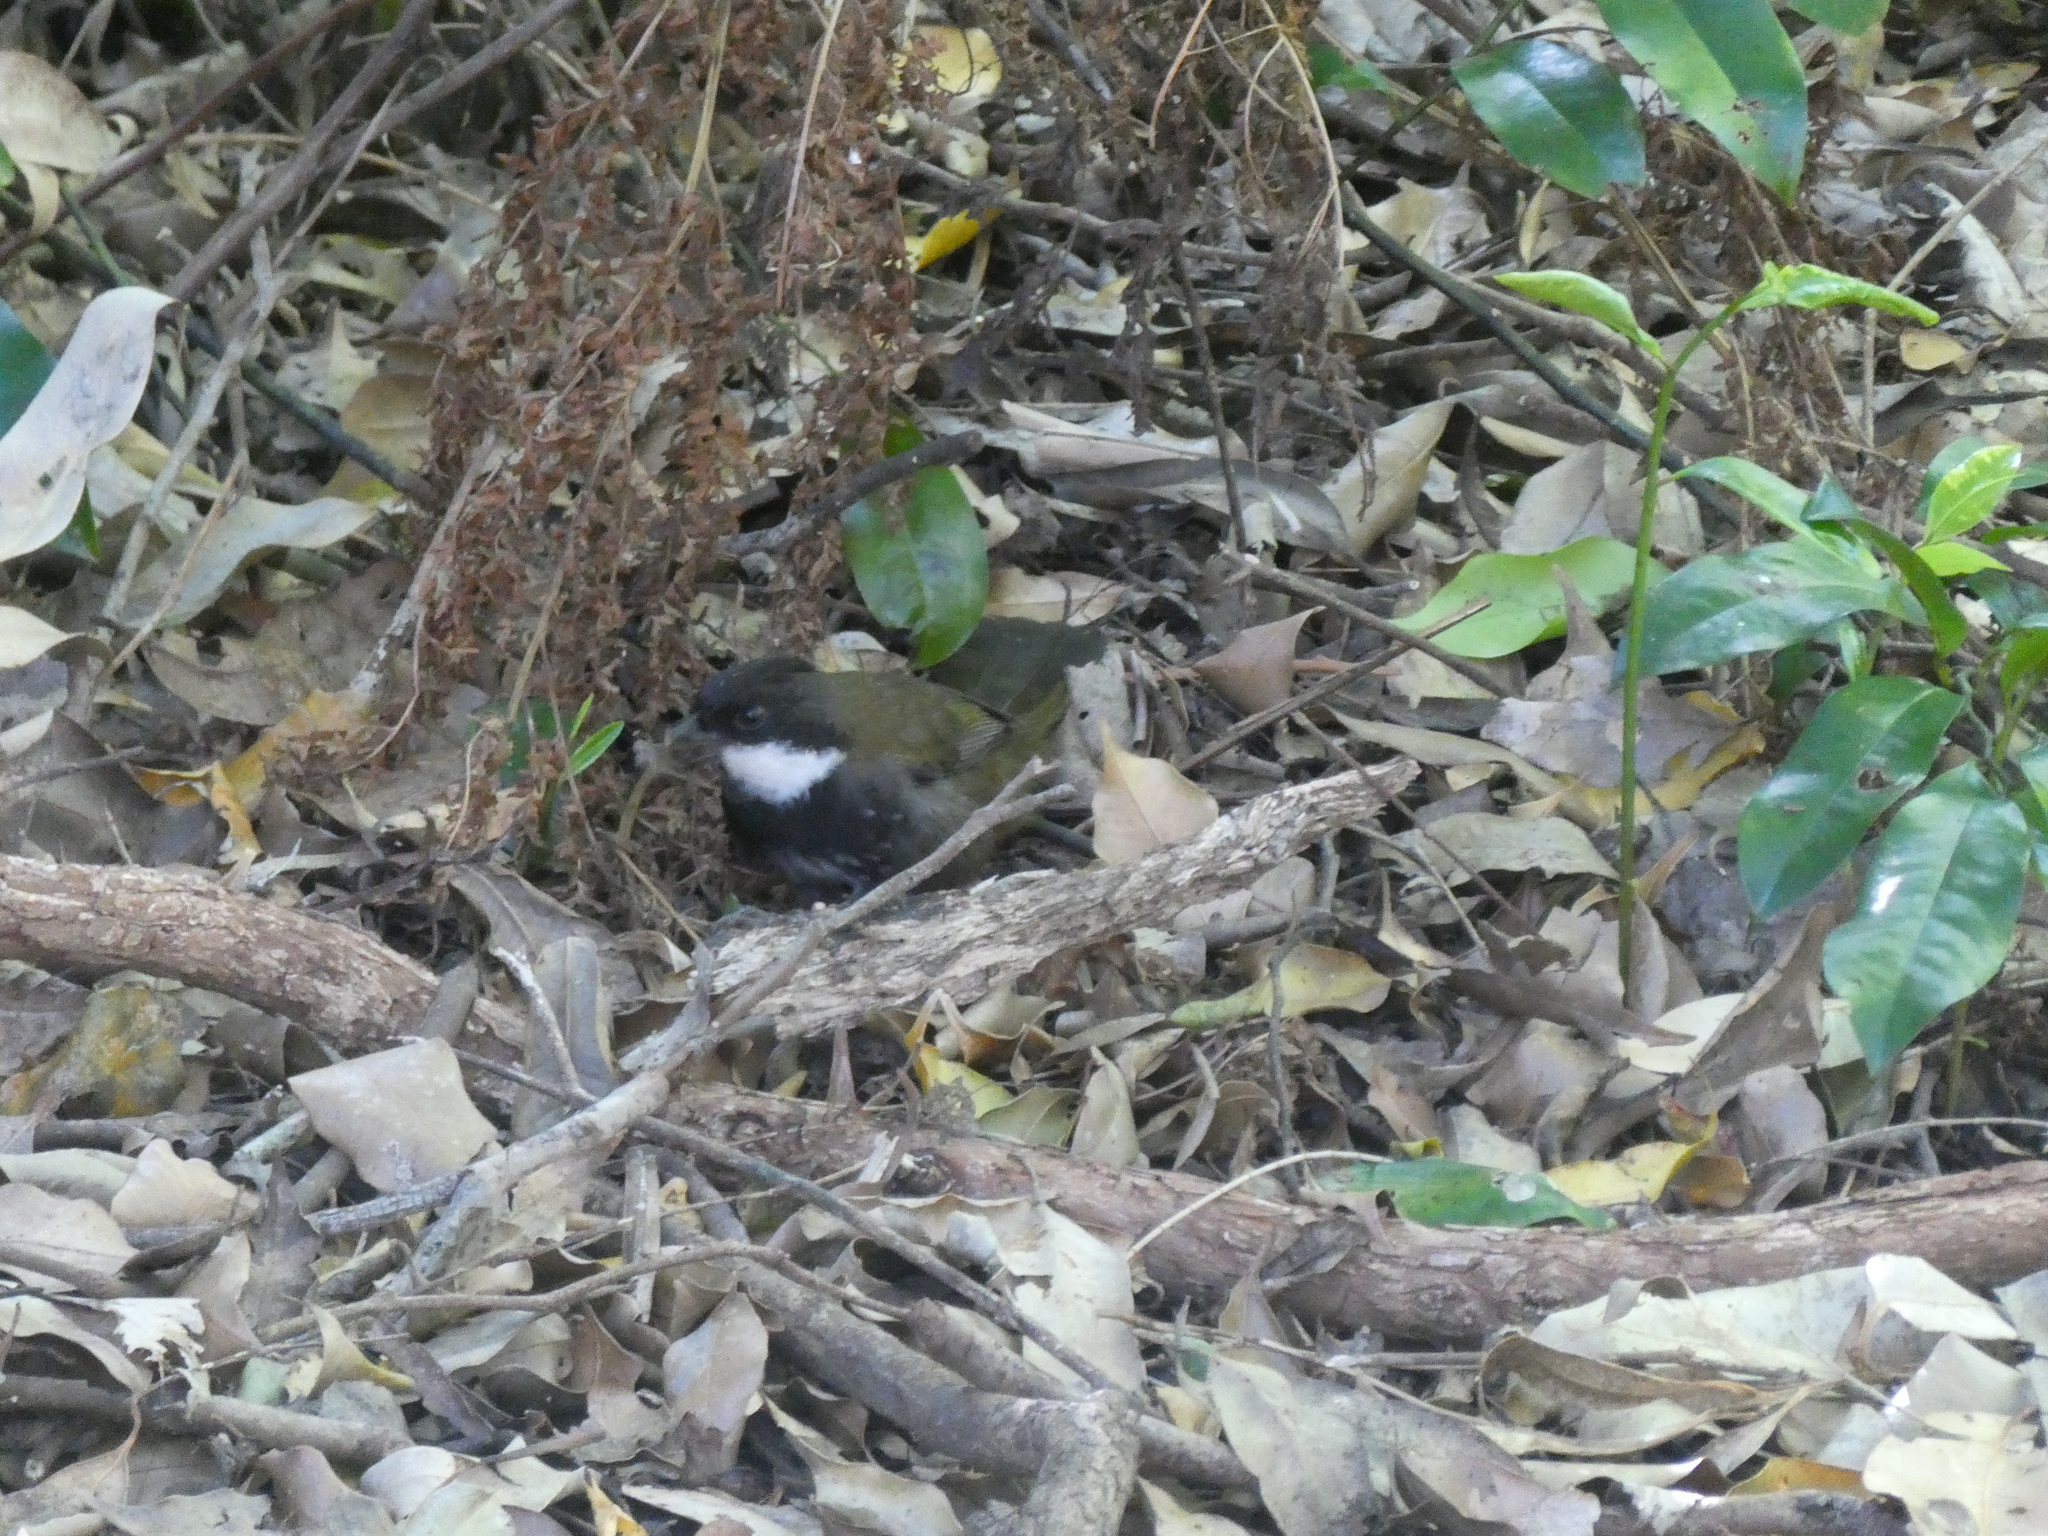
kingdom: Animalia
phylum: Chordata
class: Aves
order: Passeriformes
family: Psophodidae
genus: Psophodes
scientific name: Psophodes olivaceus
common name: Eastern whipbird
